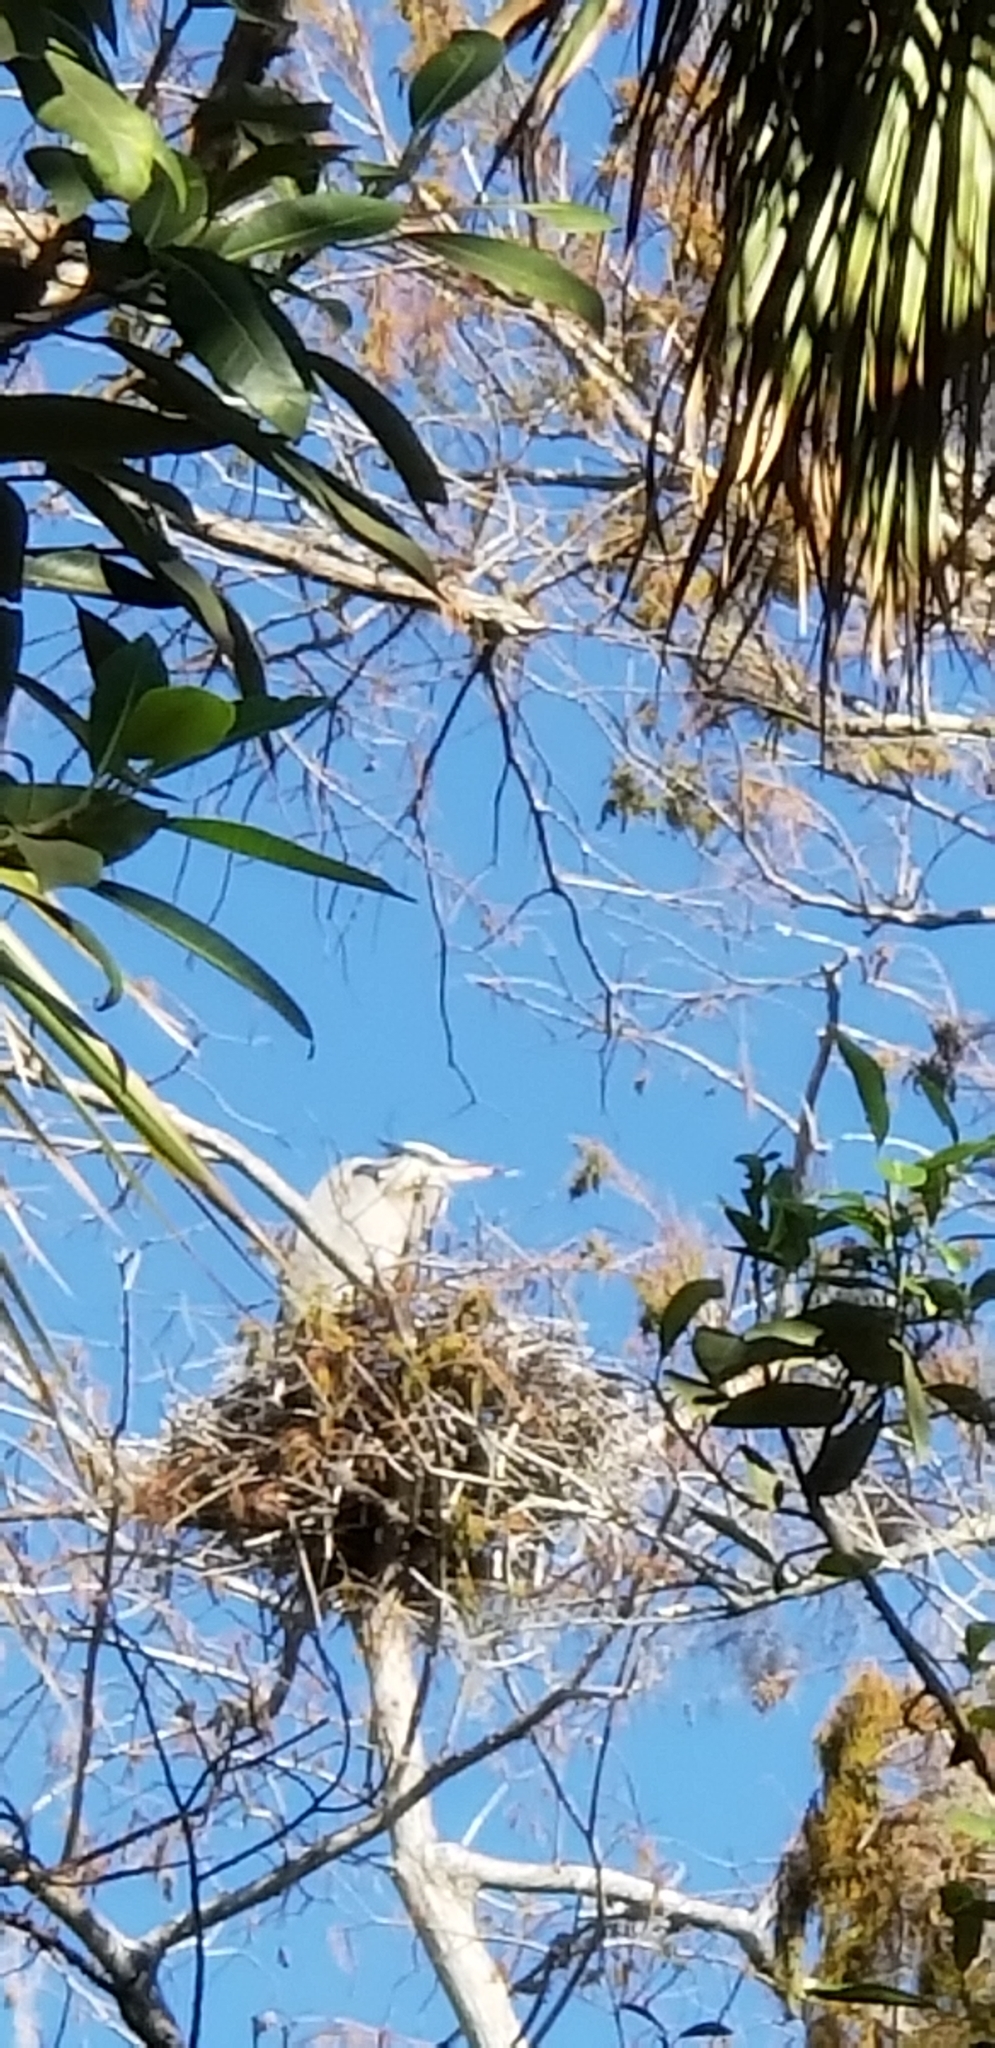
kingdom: Animalia
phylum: Chordata
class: Aves
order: Pelecaniformes
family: Ardeidae
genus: Ardea
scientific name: Ardea herodias
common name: Great blue heron
